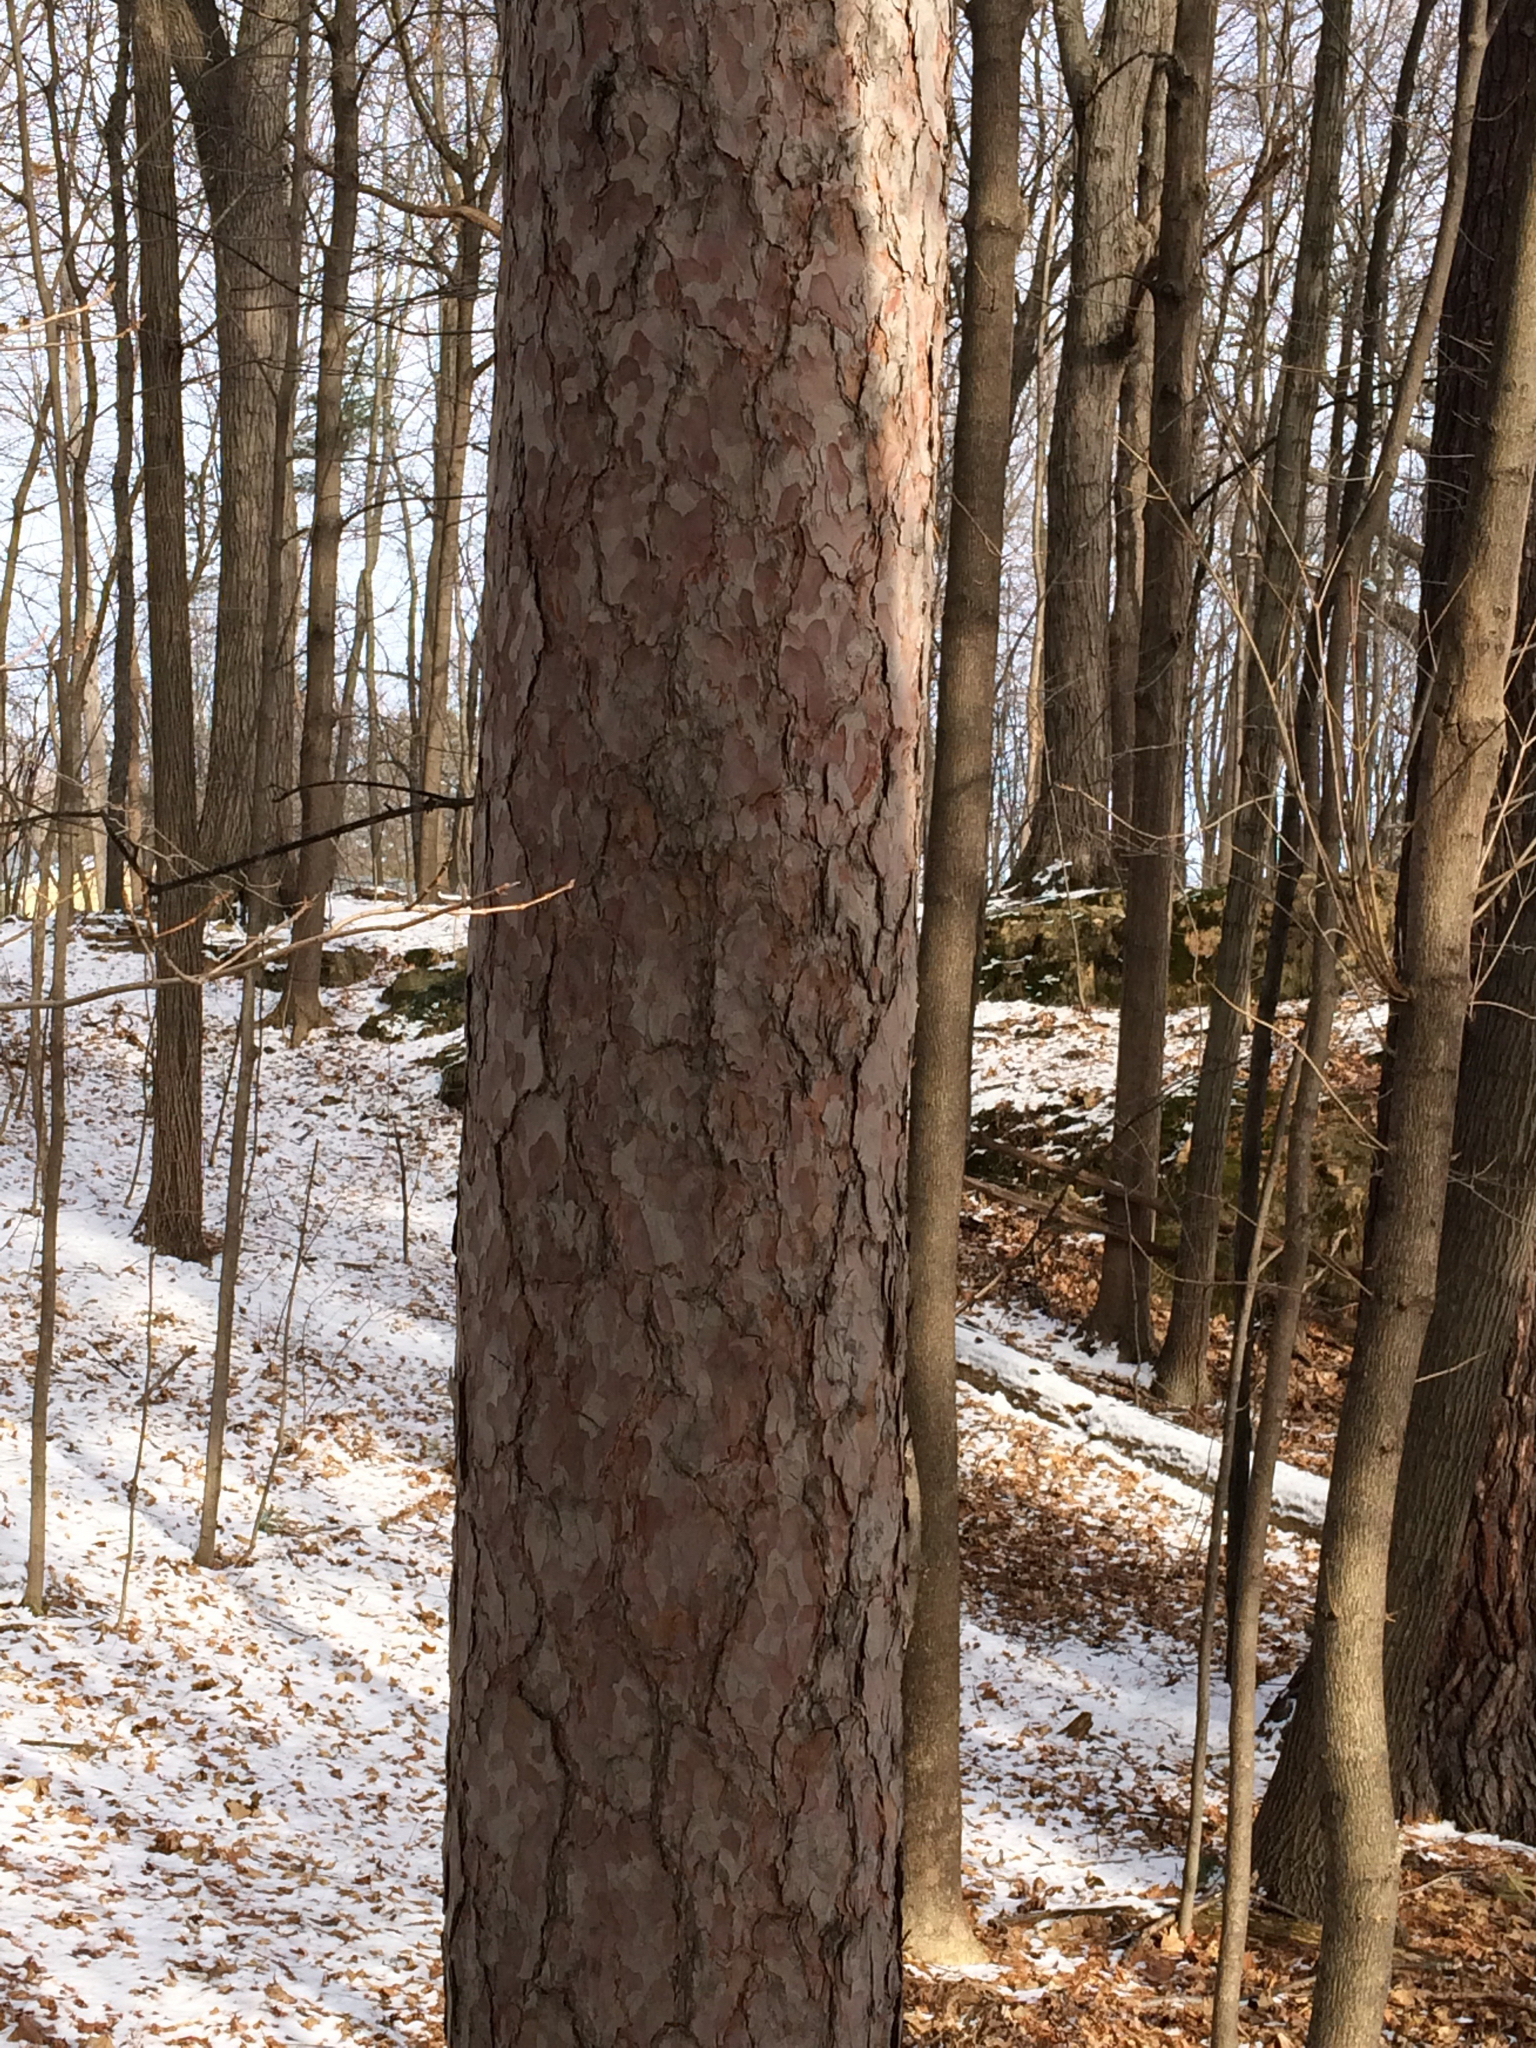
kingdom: Plantae
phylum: Tracheophyta
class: Pinopsida
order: Pinales
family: Pinaceae
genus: Pinus
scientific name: Pinus resinosa
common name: Norway pine
